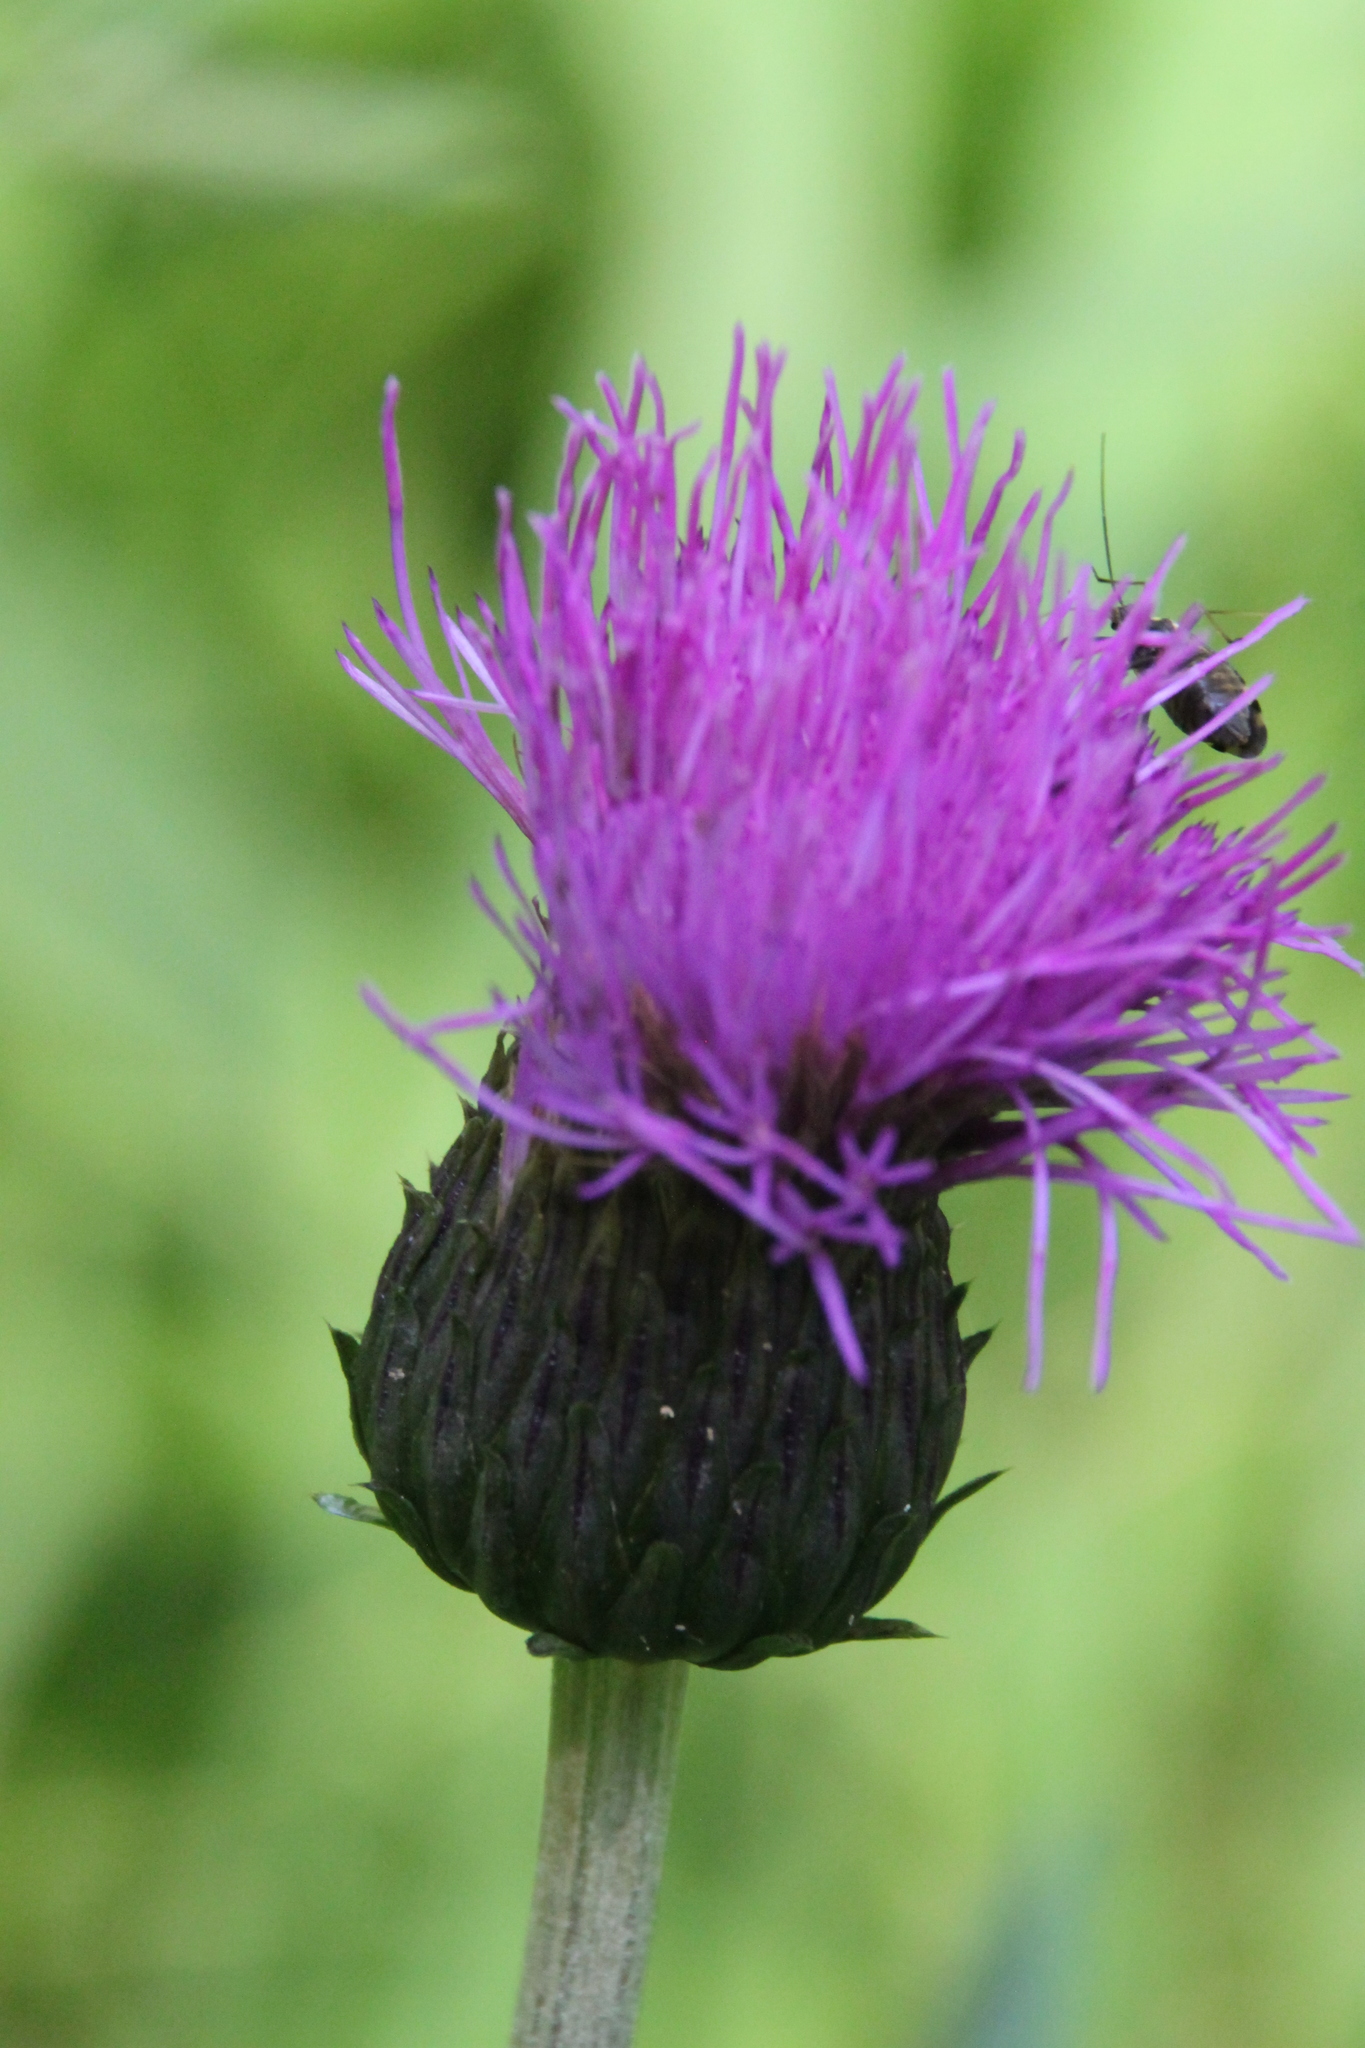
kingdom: Plantae
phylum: Tracheophyta
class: Magnoliopsida
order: Asterales
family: Asteraceae
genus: Cirsium
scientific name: Cirsium heterophyllum
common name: Melancholy thistle
